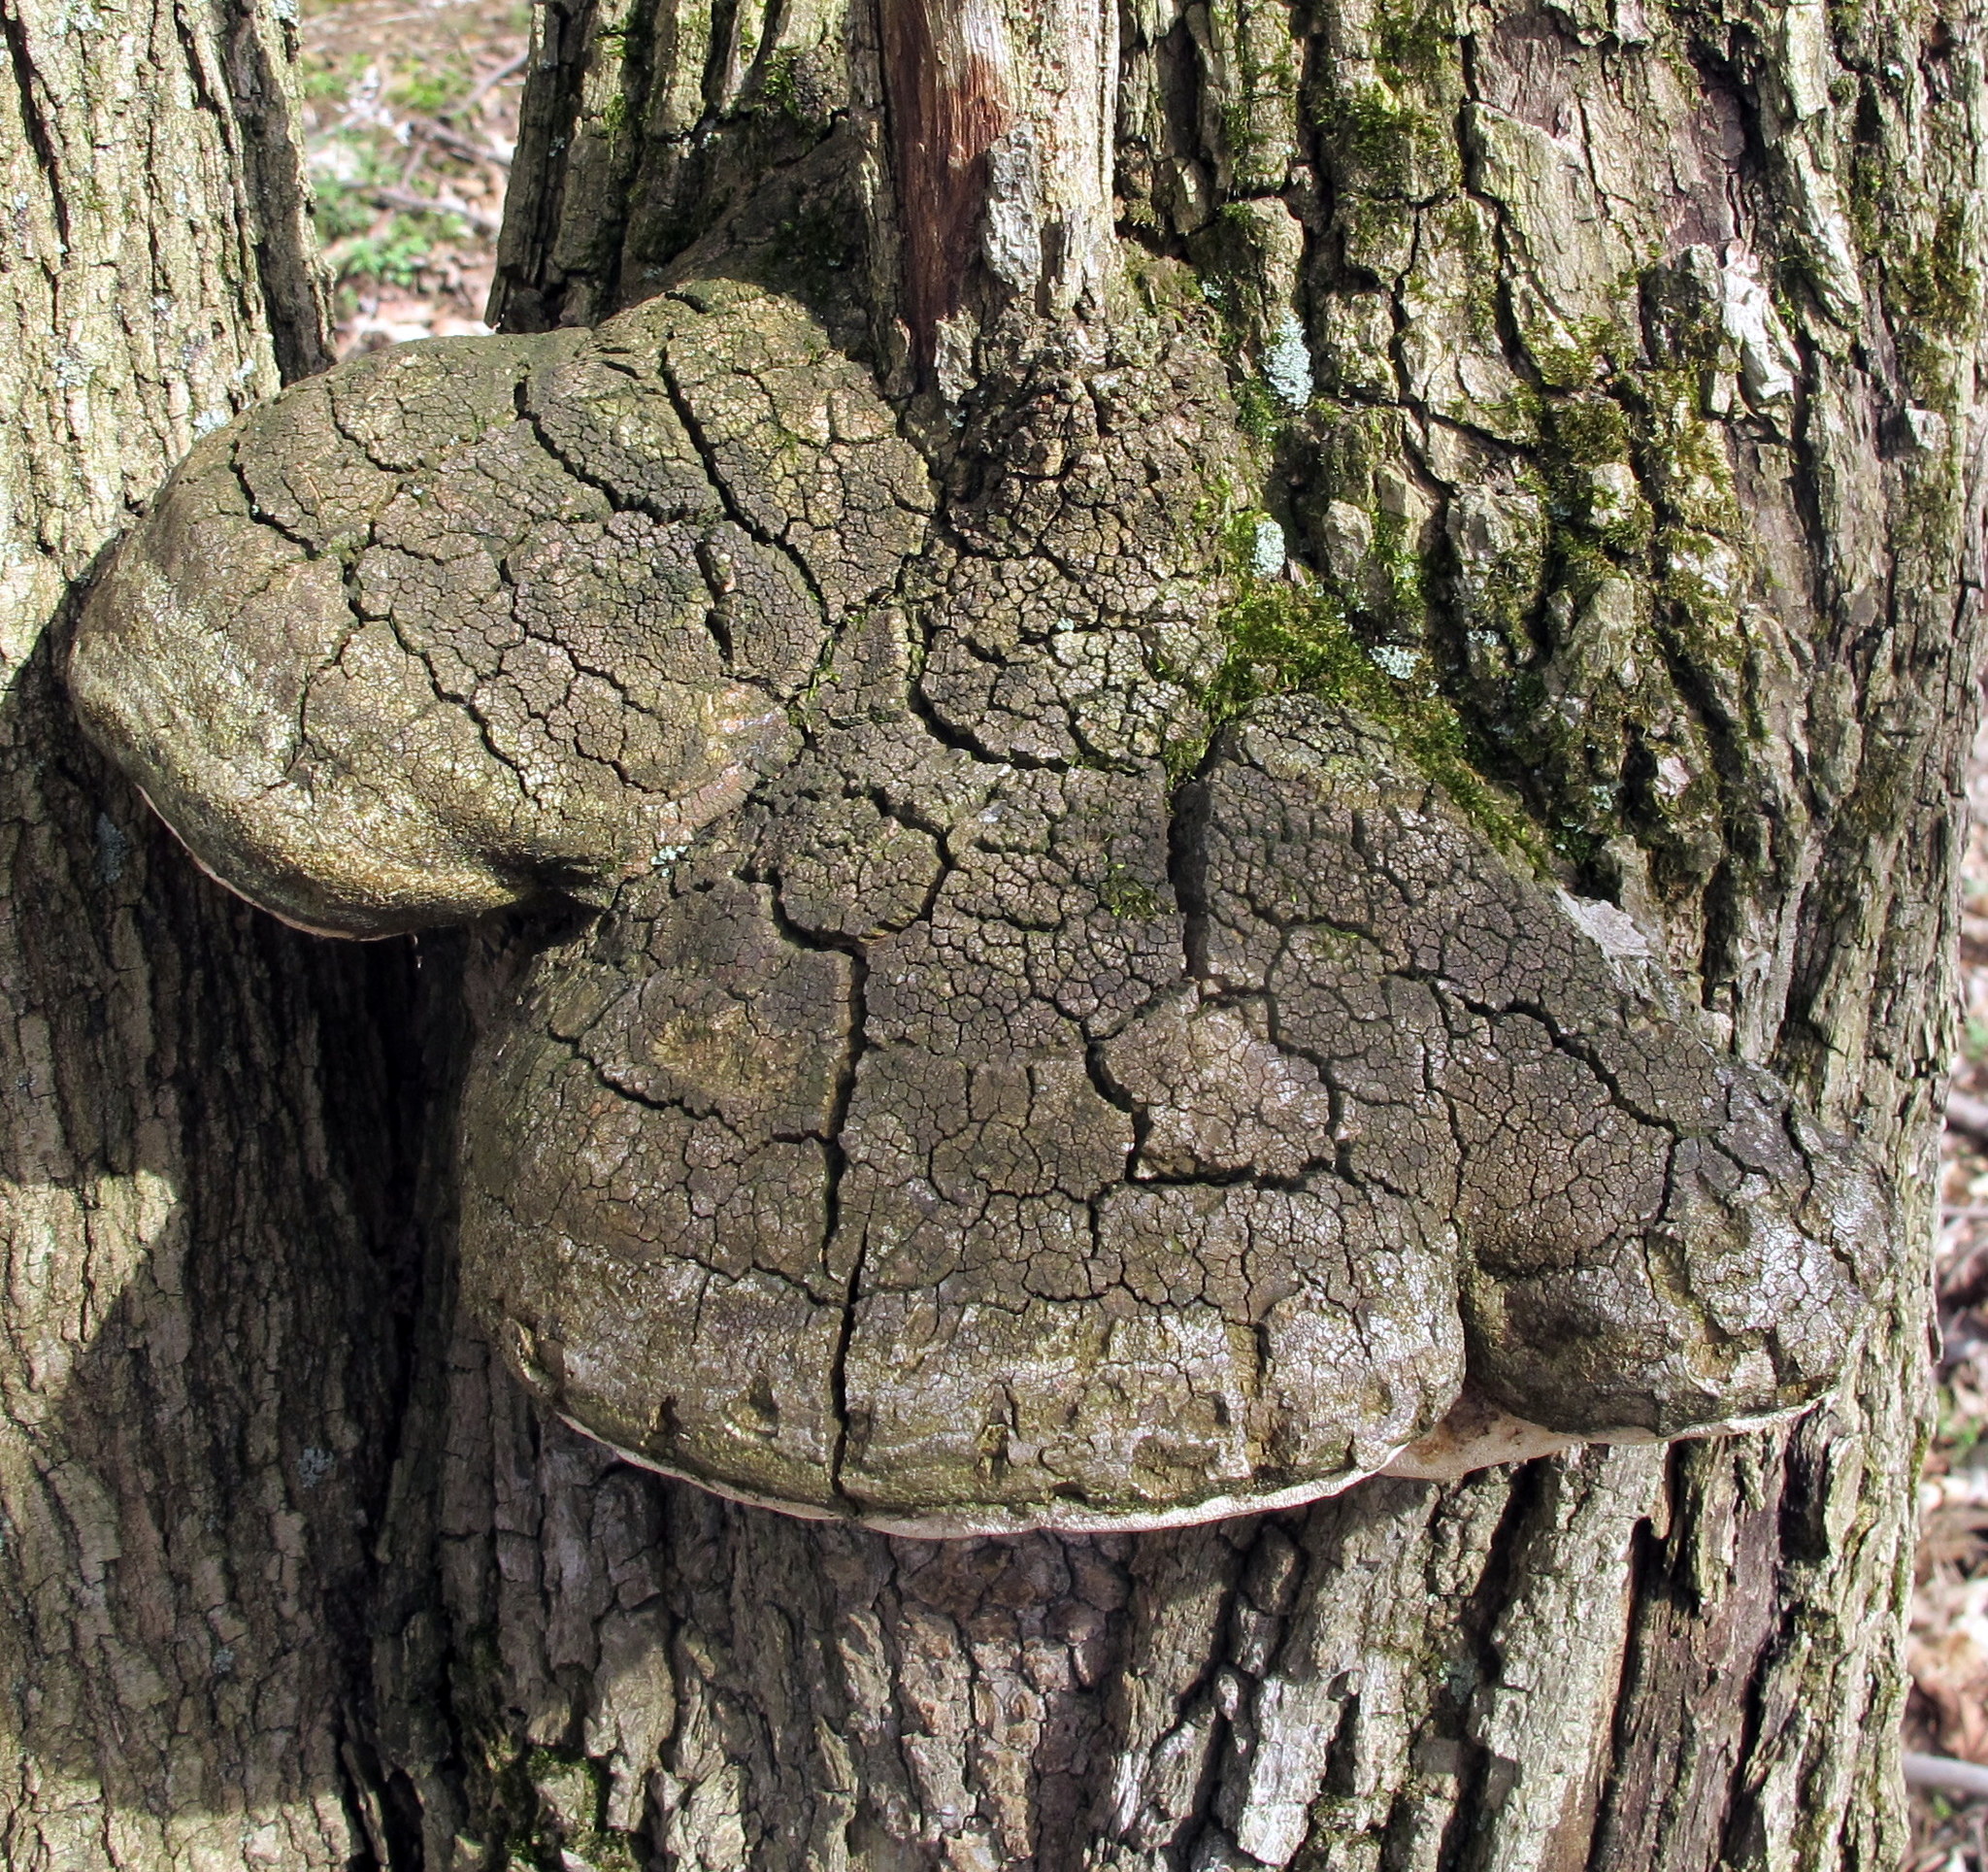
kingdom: Fungi
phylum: Basidiomycota
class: Agaricomycetes
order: Polyporales
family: Polyporaceae
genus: Perenniporia
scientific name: Perenniporia fraxinophila
